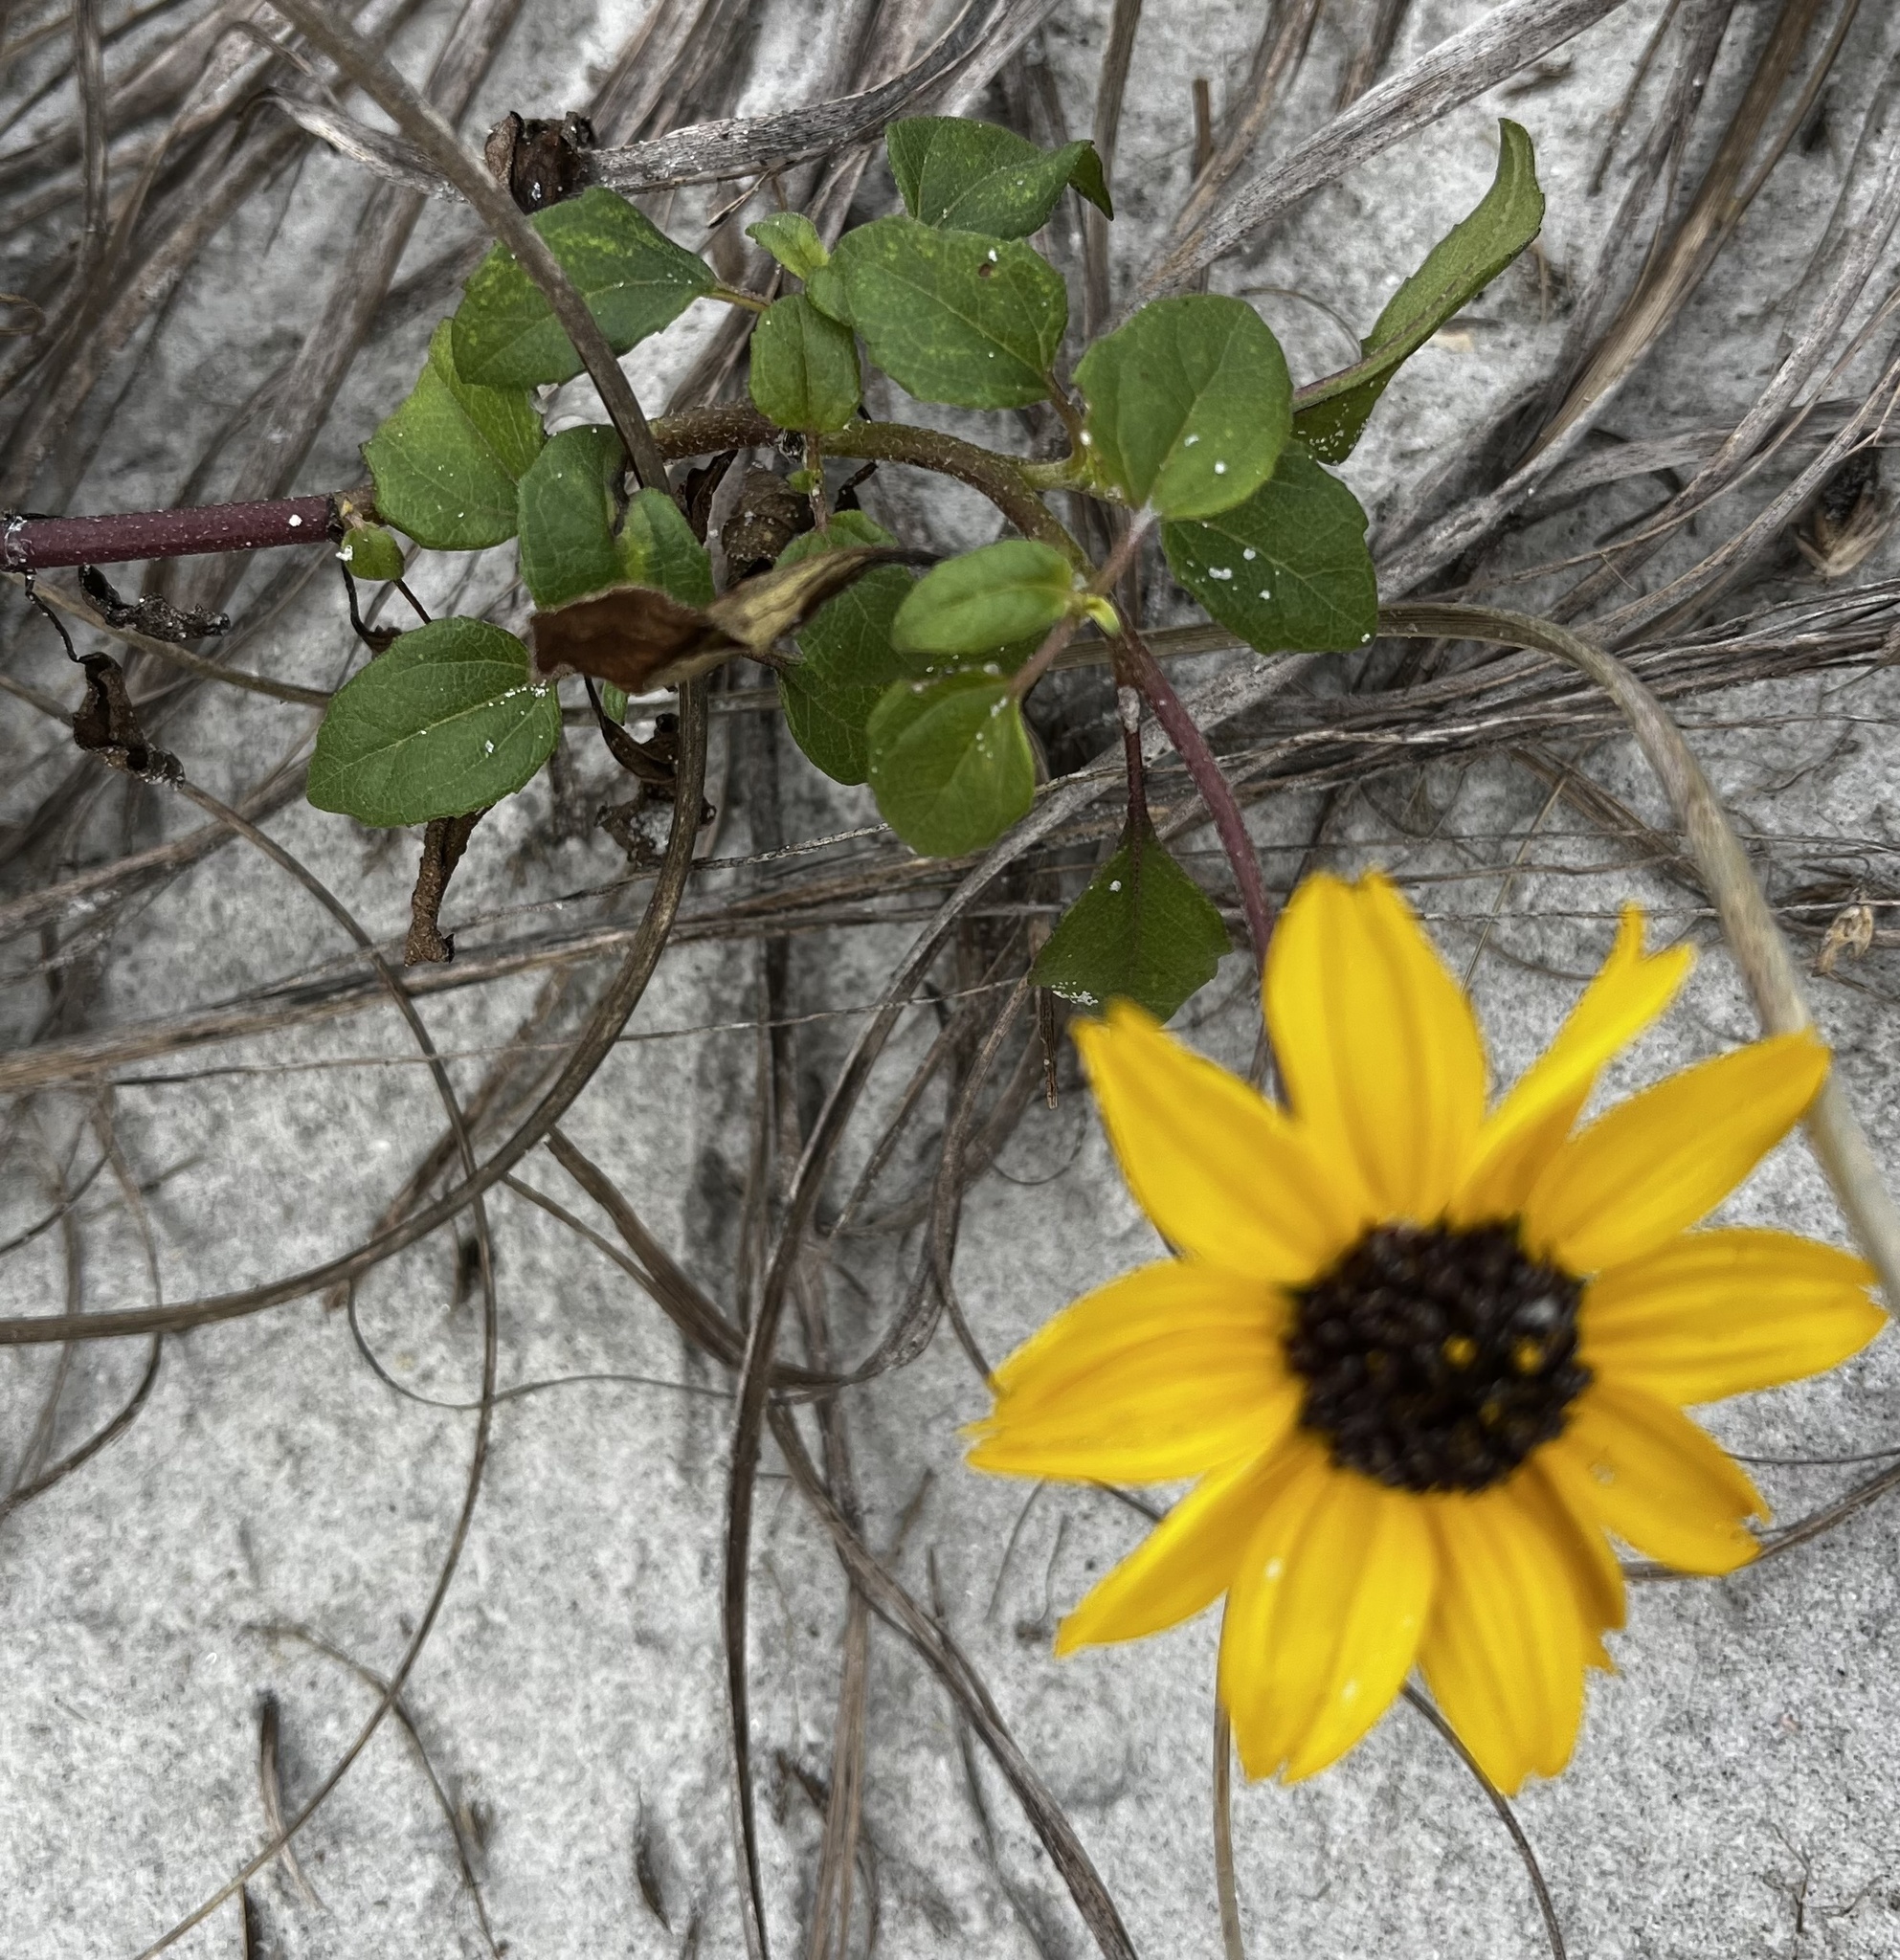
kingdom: Plantae
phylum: Tracheophyta
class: Magnoliopsida
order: Asterales
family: Asteraceae
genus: Helianthus
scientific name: Helianthus debilis
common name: Weak sunflower
